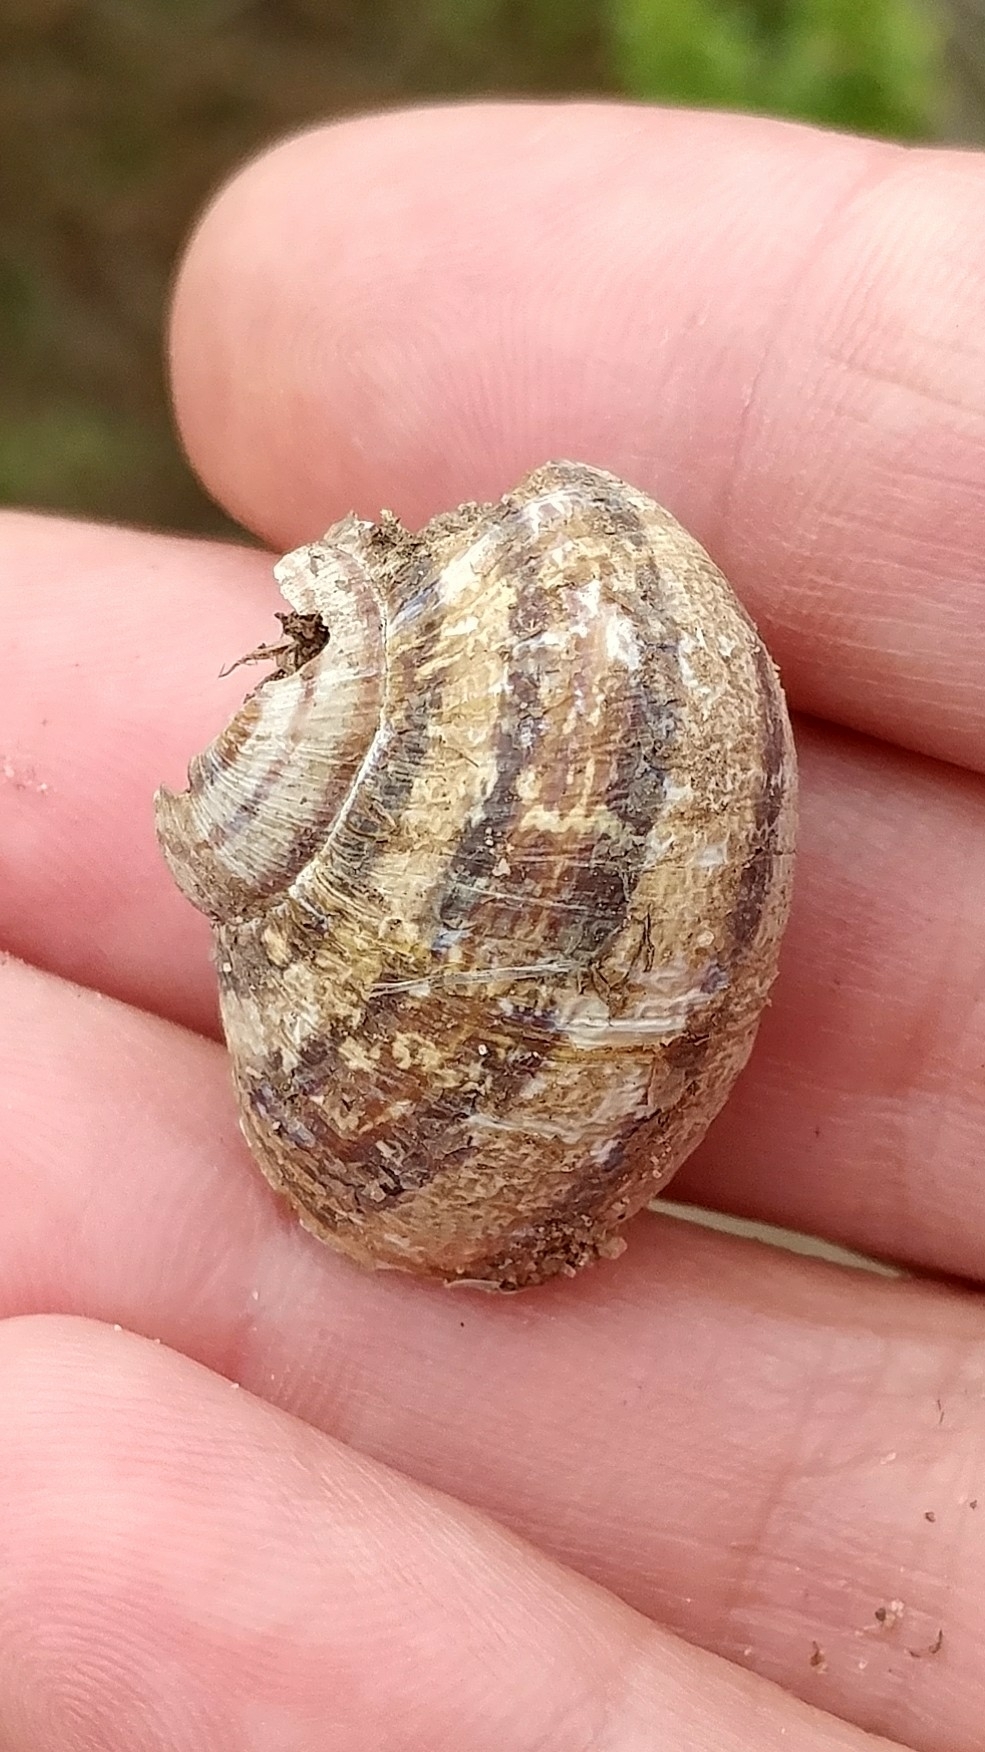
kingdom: Animalia
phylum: Mollusca
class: Gastropoda
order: Stylommatophora
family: Helicidae
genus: Cornu
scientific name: Cornu aspersum
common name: Brown garden snail
